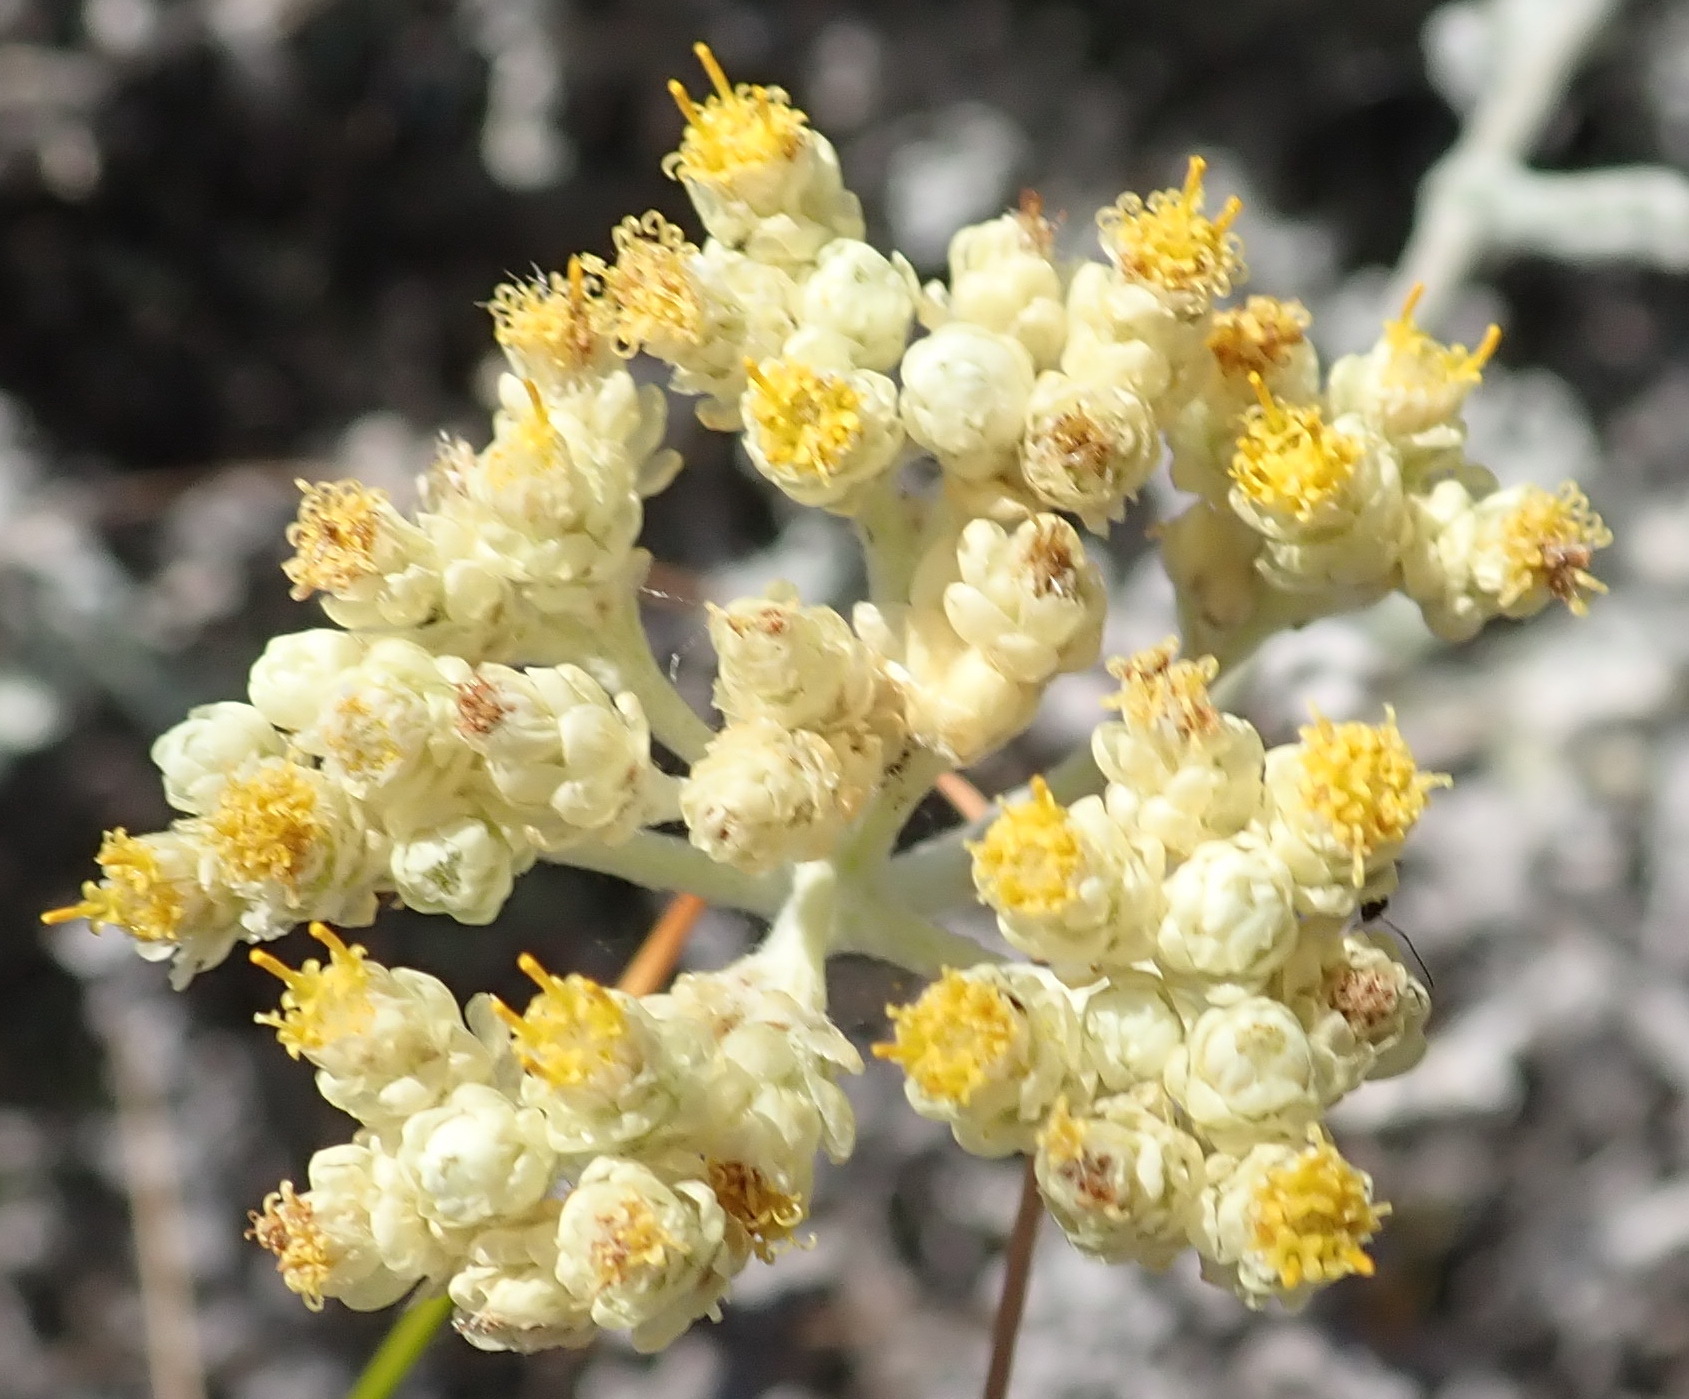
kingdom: Plantae
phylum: Tracheophyta
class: Magnoliopsida
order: Asterales
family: Asteraceae
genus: Helichrysum
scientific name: Helichrysum patulum
